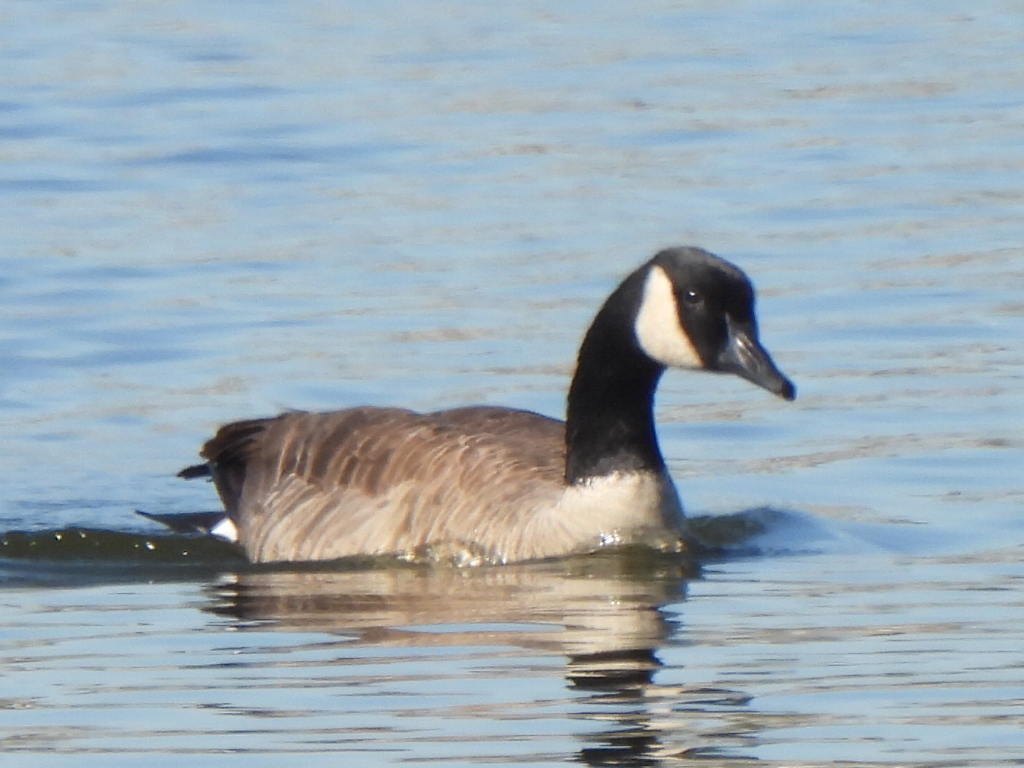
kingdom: Animalia
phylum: Chordata
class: Aves
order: Anseriformes
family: Anatidae
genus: Branta
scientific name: Branta canadensis
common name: Canada goose
